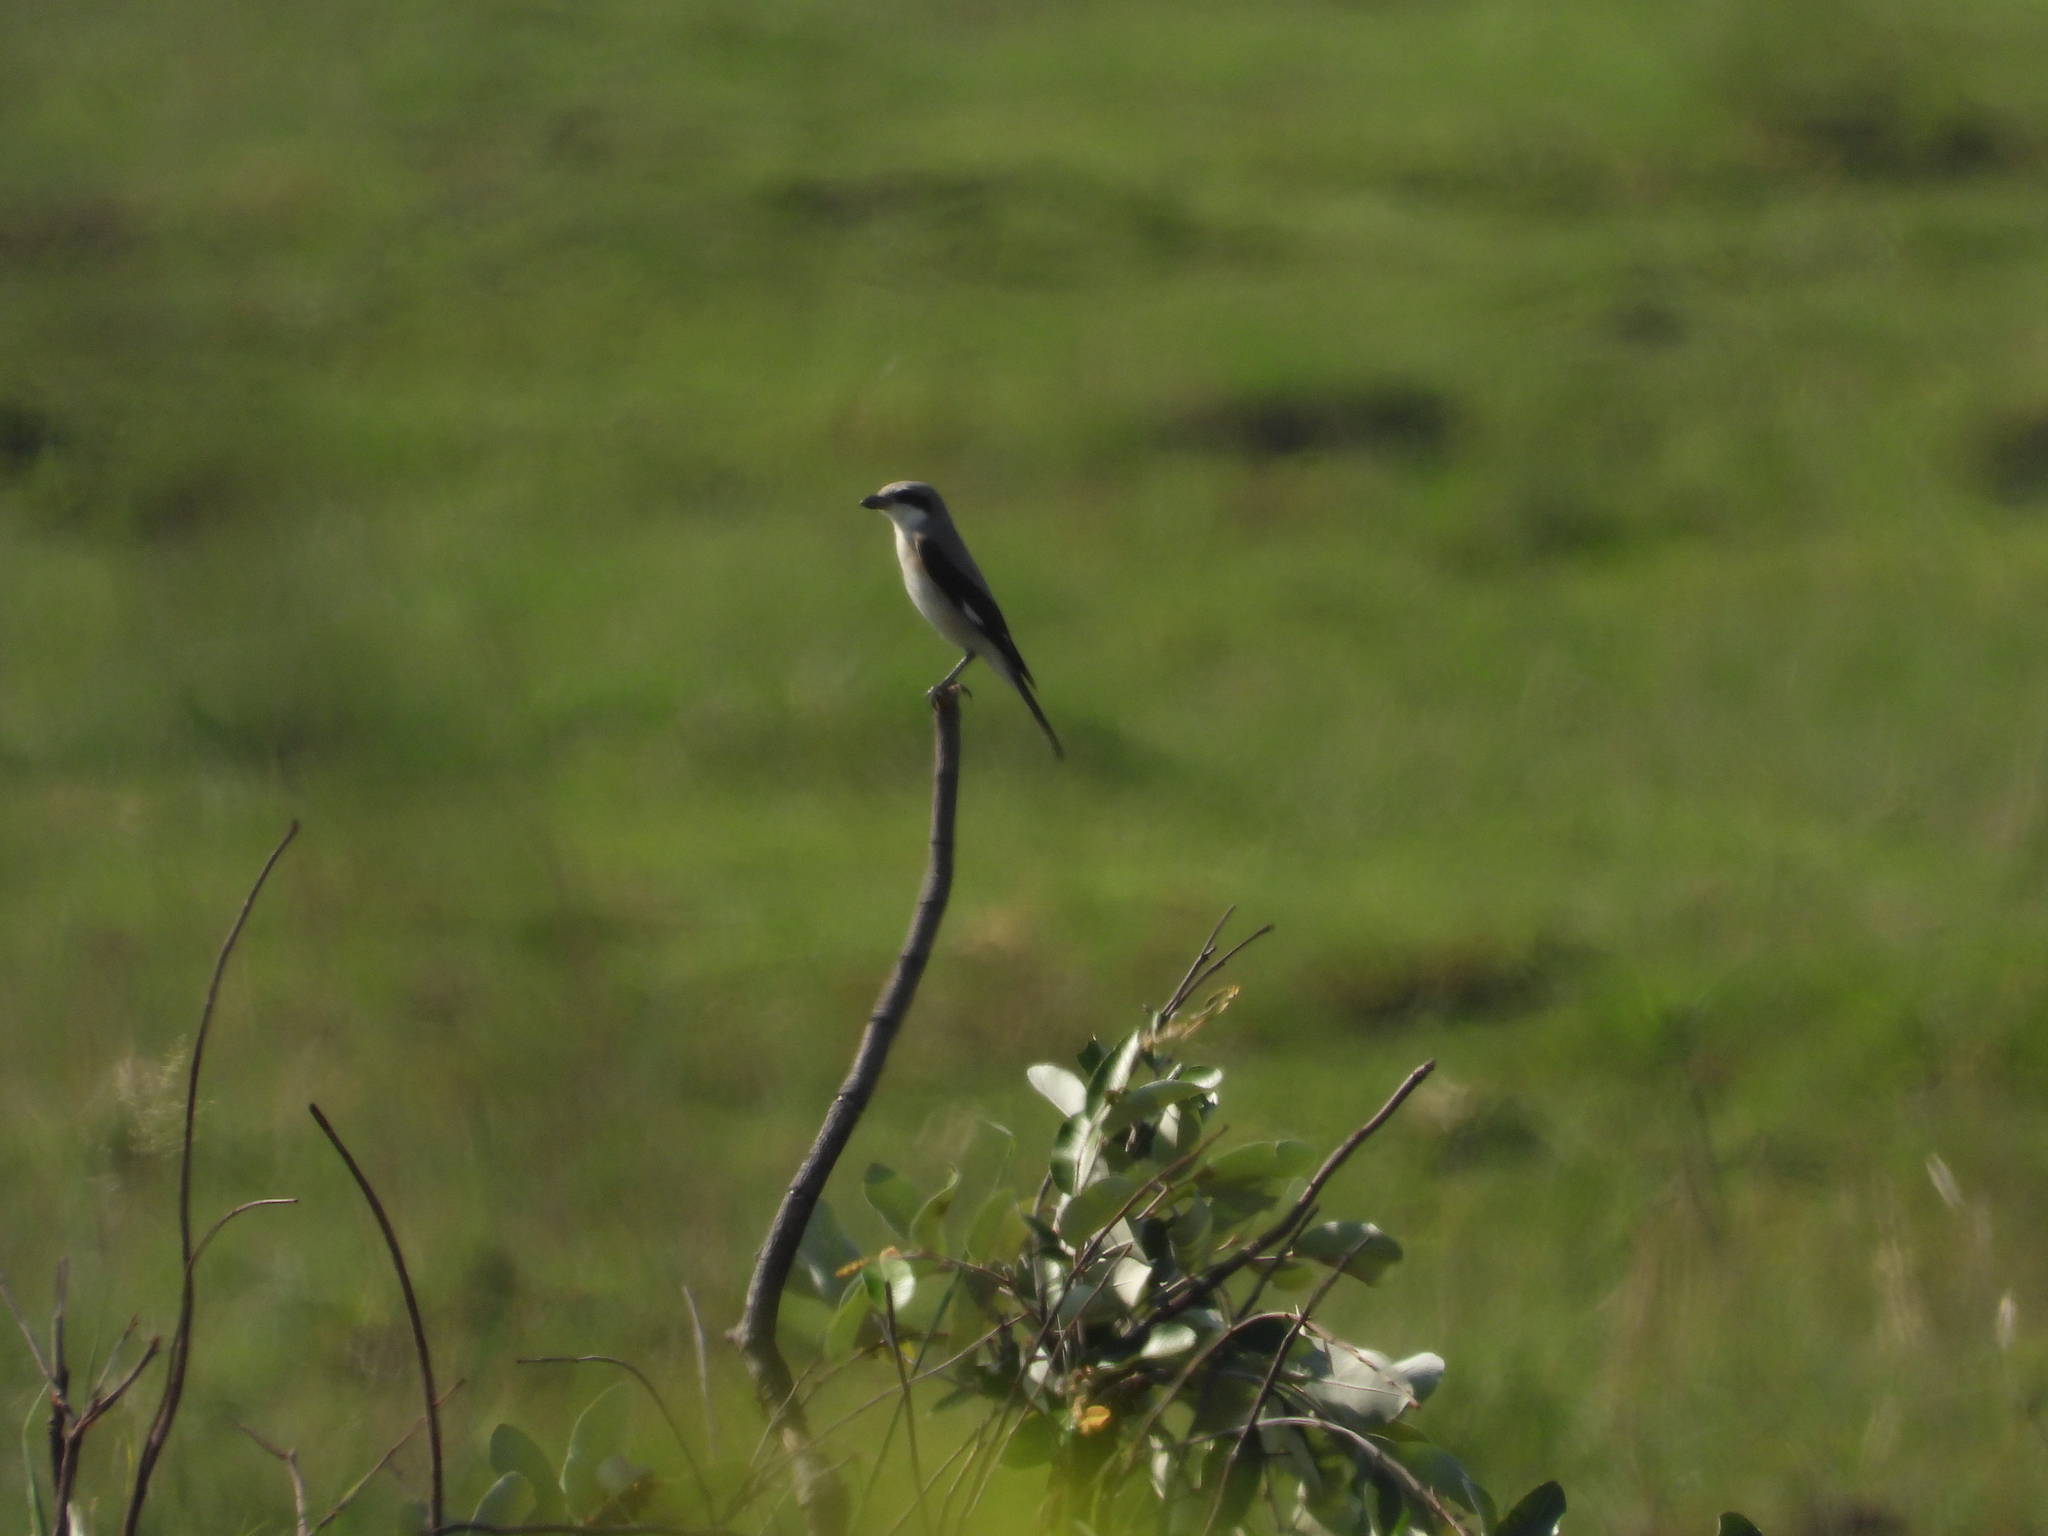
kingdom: Animalia
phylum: Chordata
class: Aves
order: Passeriformes
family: Laniidae
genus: Lanius
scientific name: Lanius minor
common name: Lesser grey shrike
